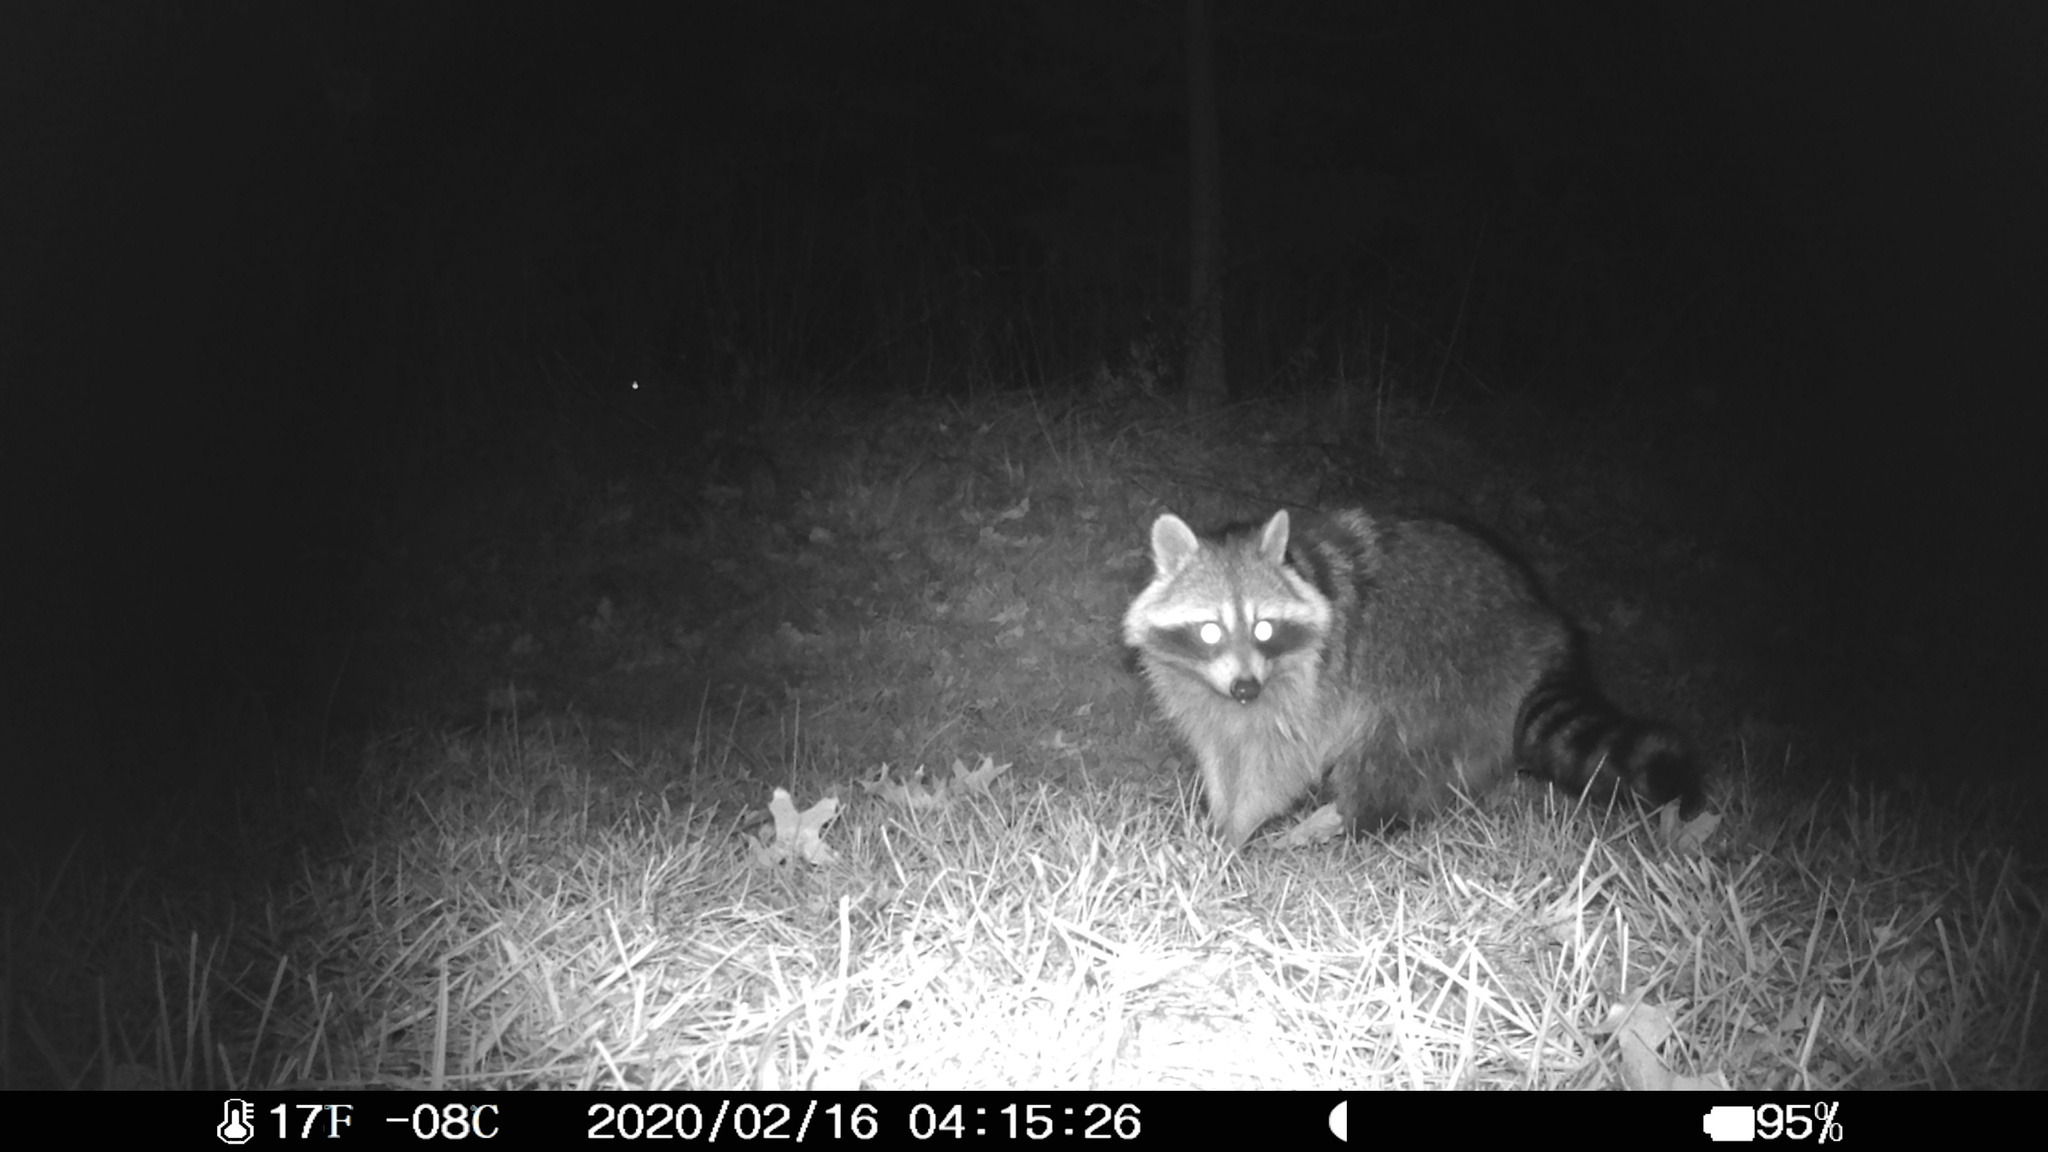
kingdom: Animalia
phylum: Chordata
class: Mammalia
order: Carnivora
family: Procyonidae
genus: Procyon
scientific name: Procyon lotor
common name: Raccoon
